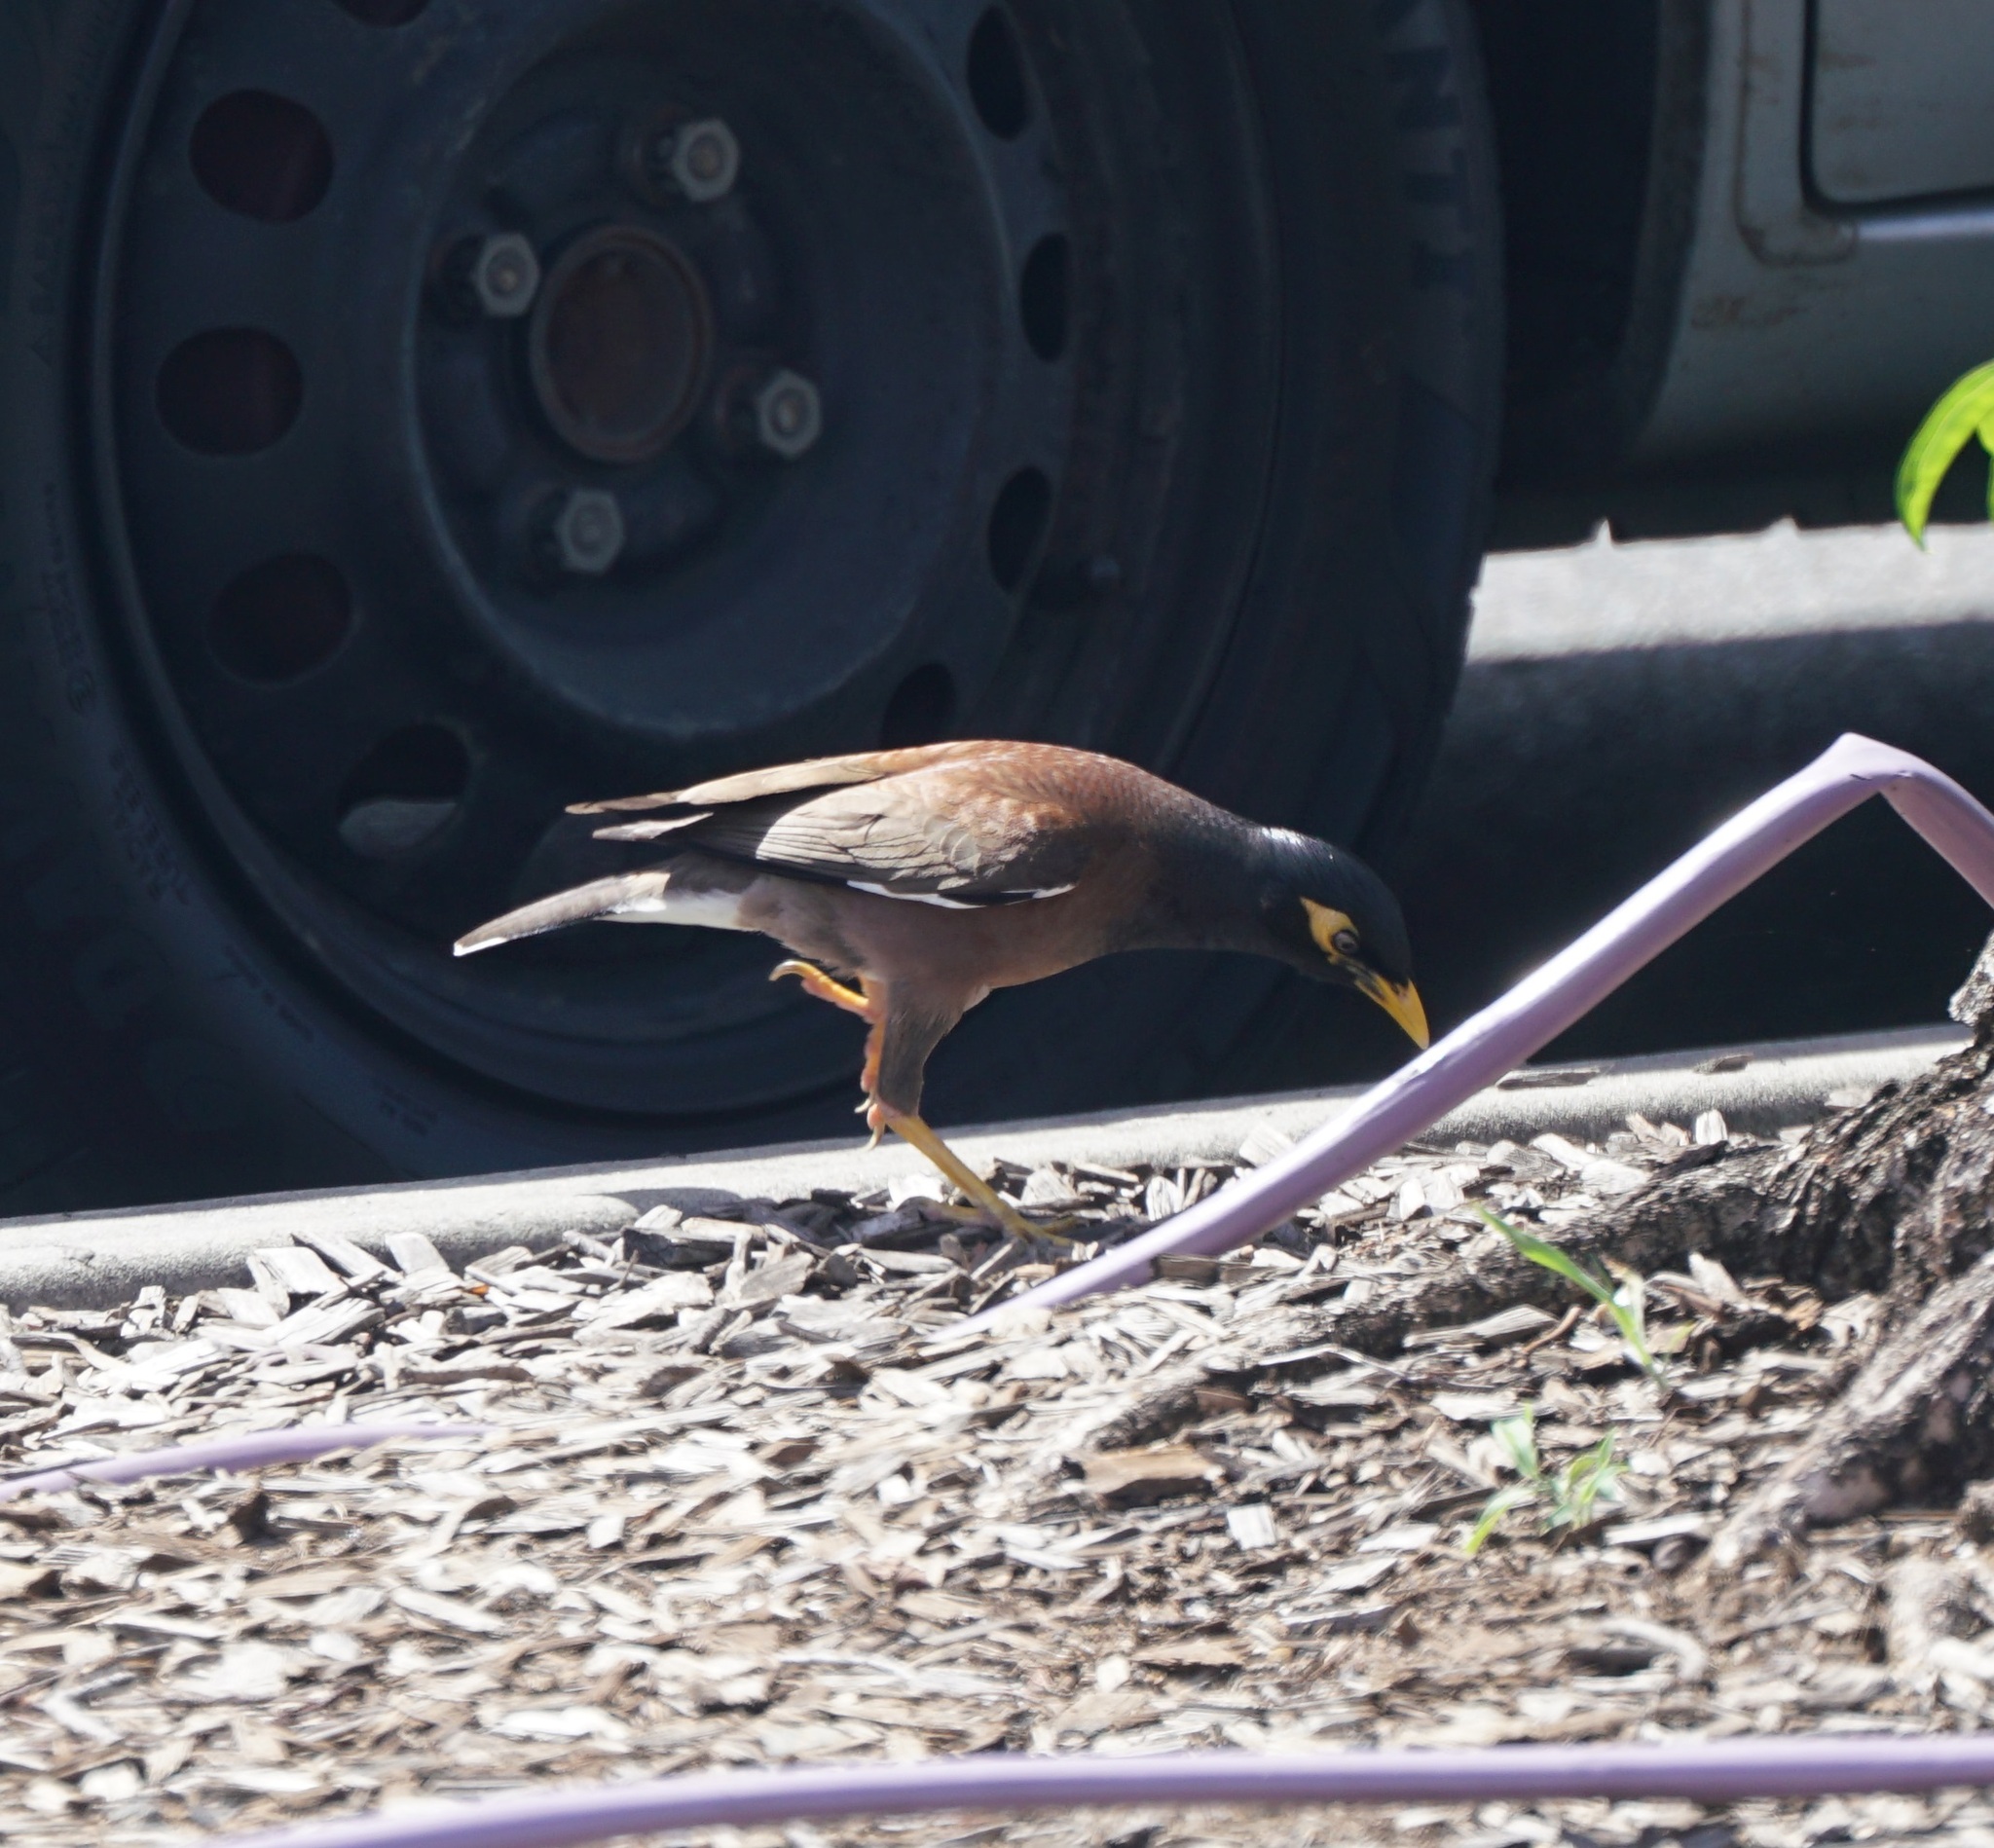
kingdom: Animalia
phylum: Chordata
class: Aves
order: Passeriformes
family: Sturnidae
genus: Acridotheres
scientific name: Acridotheres tristis
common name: Common myna
